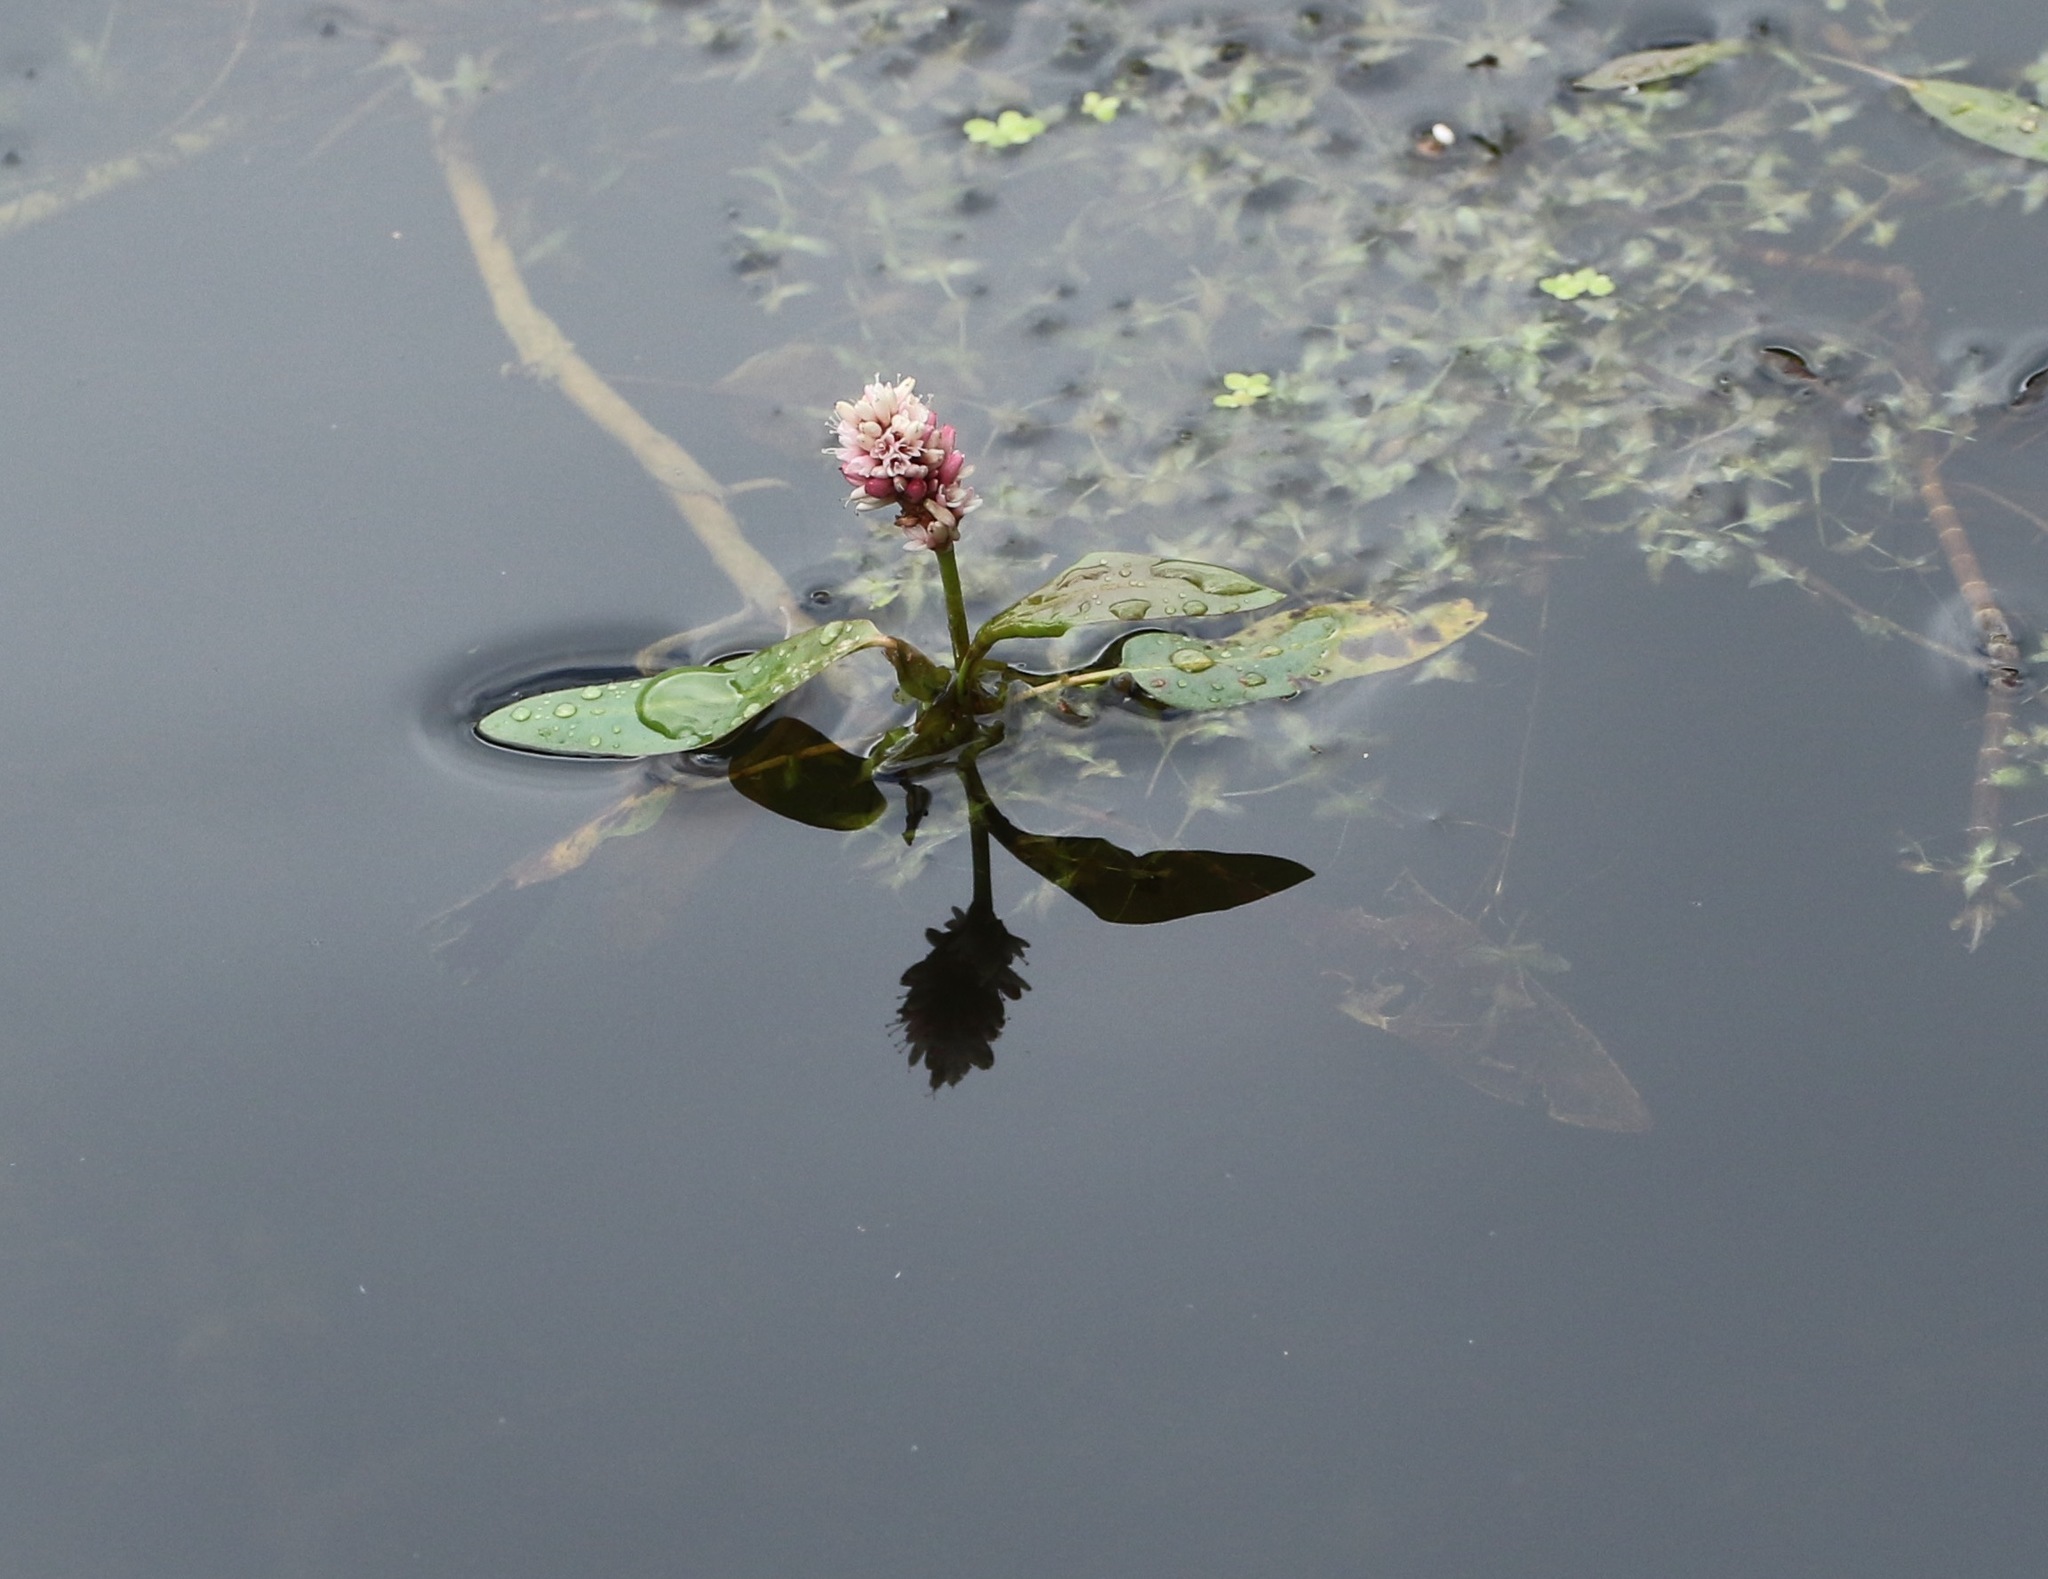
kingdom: Plantae
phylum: Tracheophyta
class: Magnoliopsida
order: Caryophyllales
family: Polygonaceae
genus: Persicaria
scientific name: Persicaria amphibia
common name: Amphibious bistort
